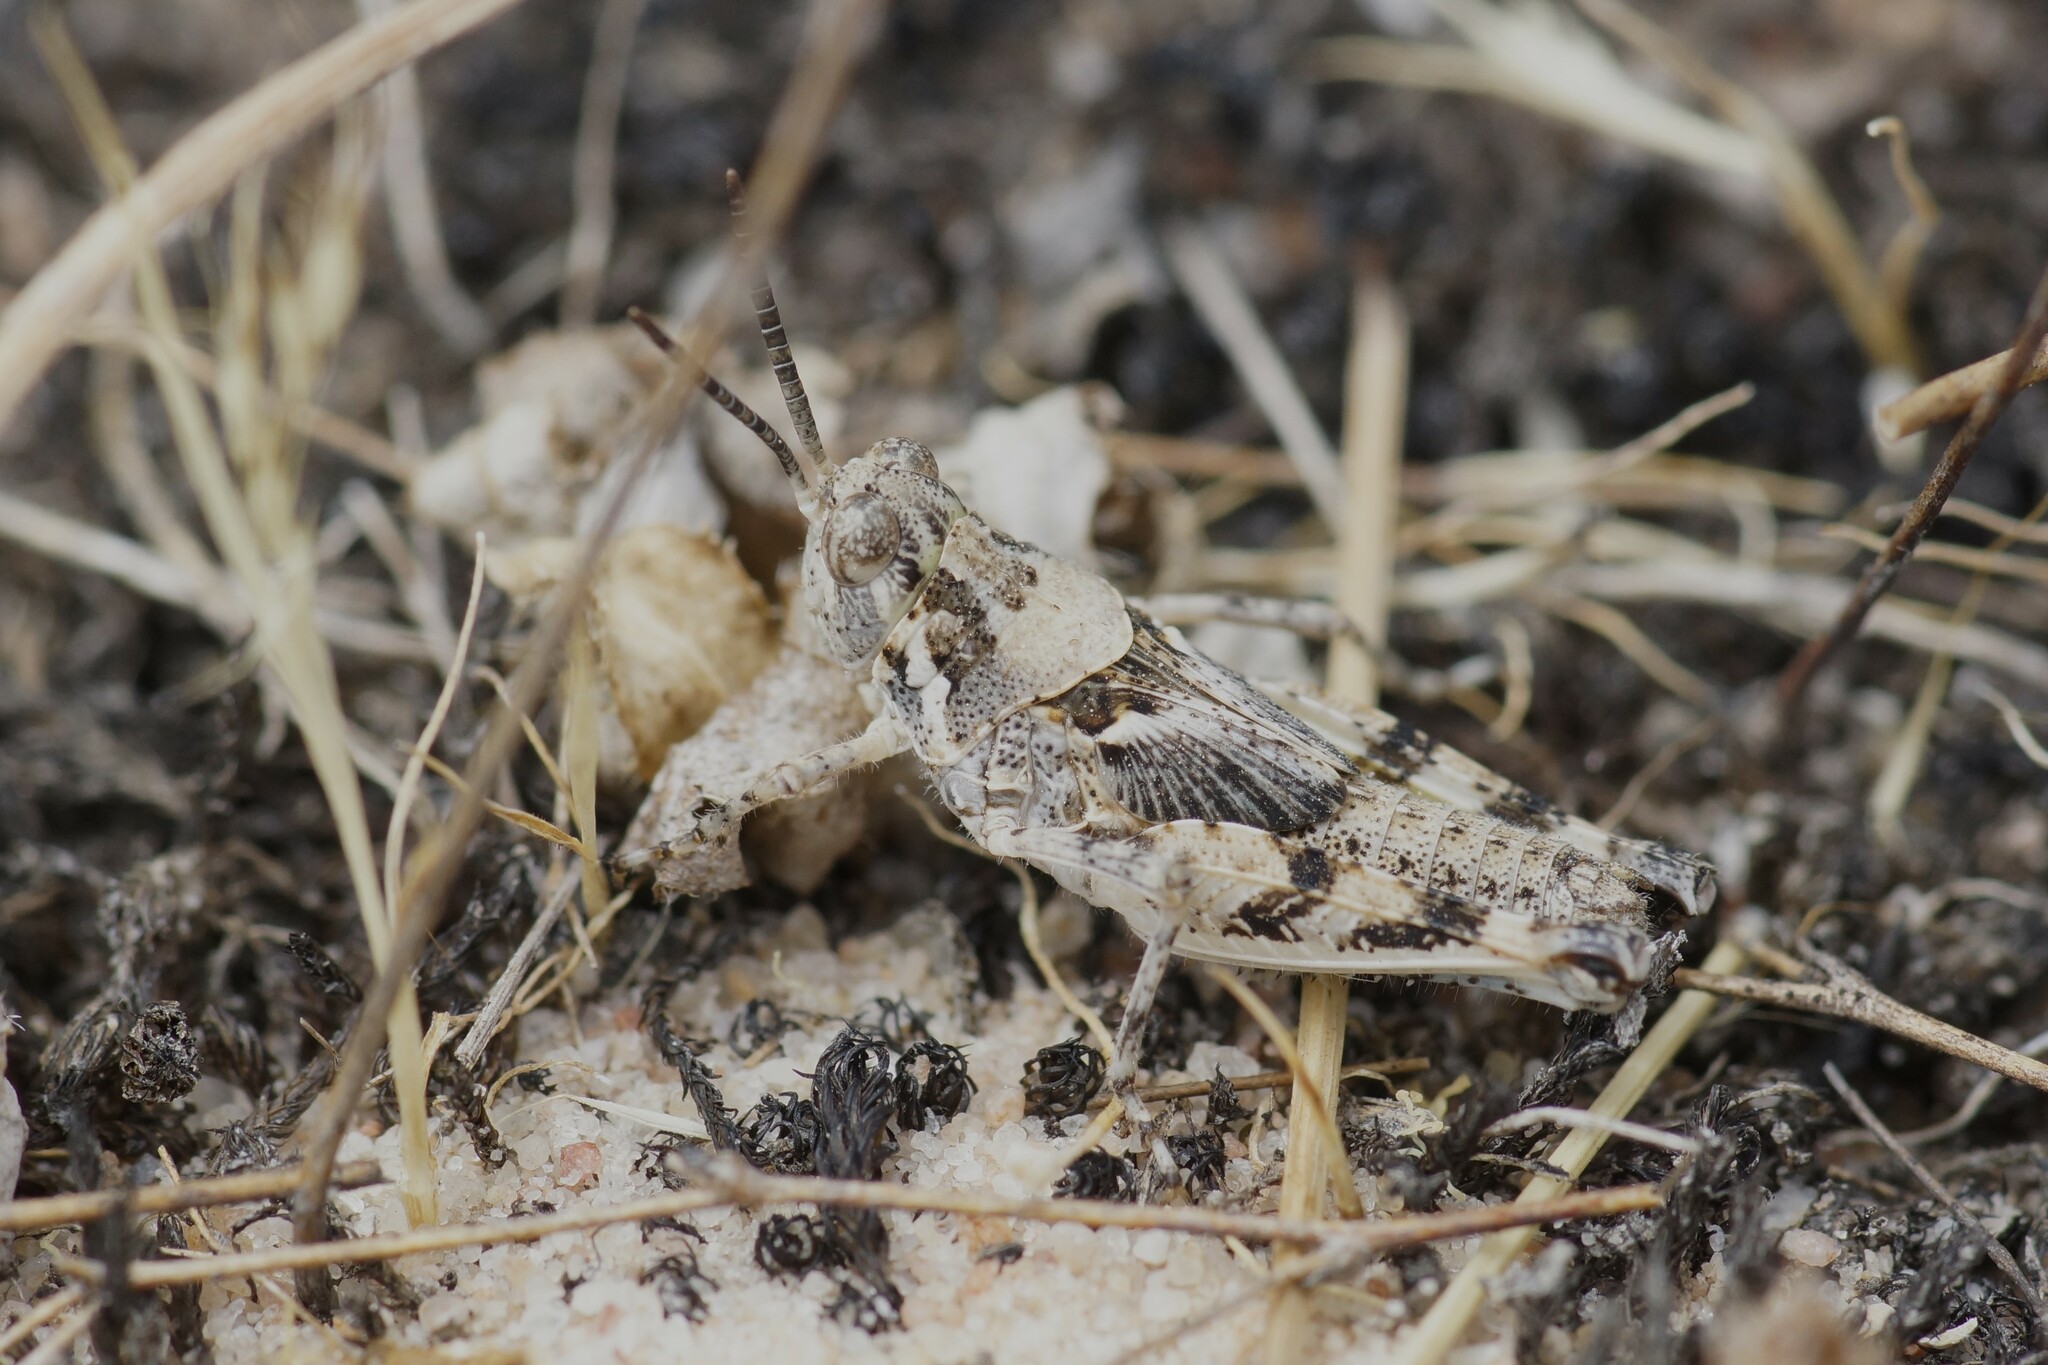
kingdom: Animalia
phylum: Arthropoda
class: Insecta
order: Orthoptera
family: Acrididae
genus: Urnisa
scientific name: Urnisa guttulosa
